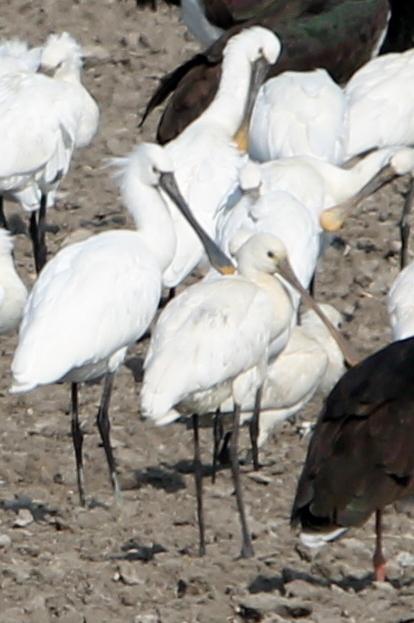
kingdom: Animalia
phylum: Chordata
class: Aves
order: Pelecaniformes
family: Threskiornithidae
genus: Platalea
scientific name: Platalea leucorodia
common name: Eurasian spoonbill
